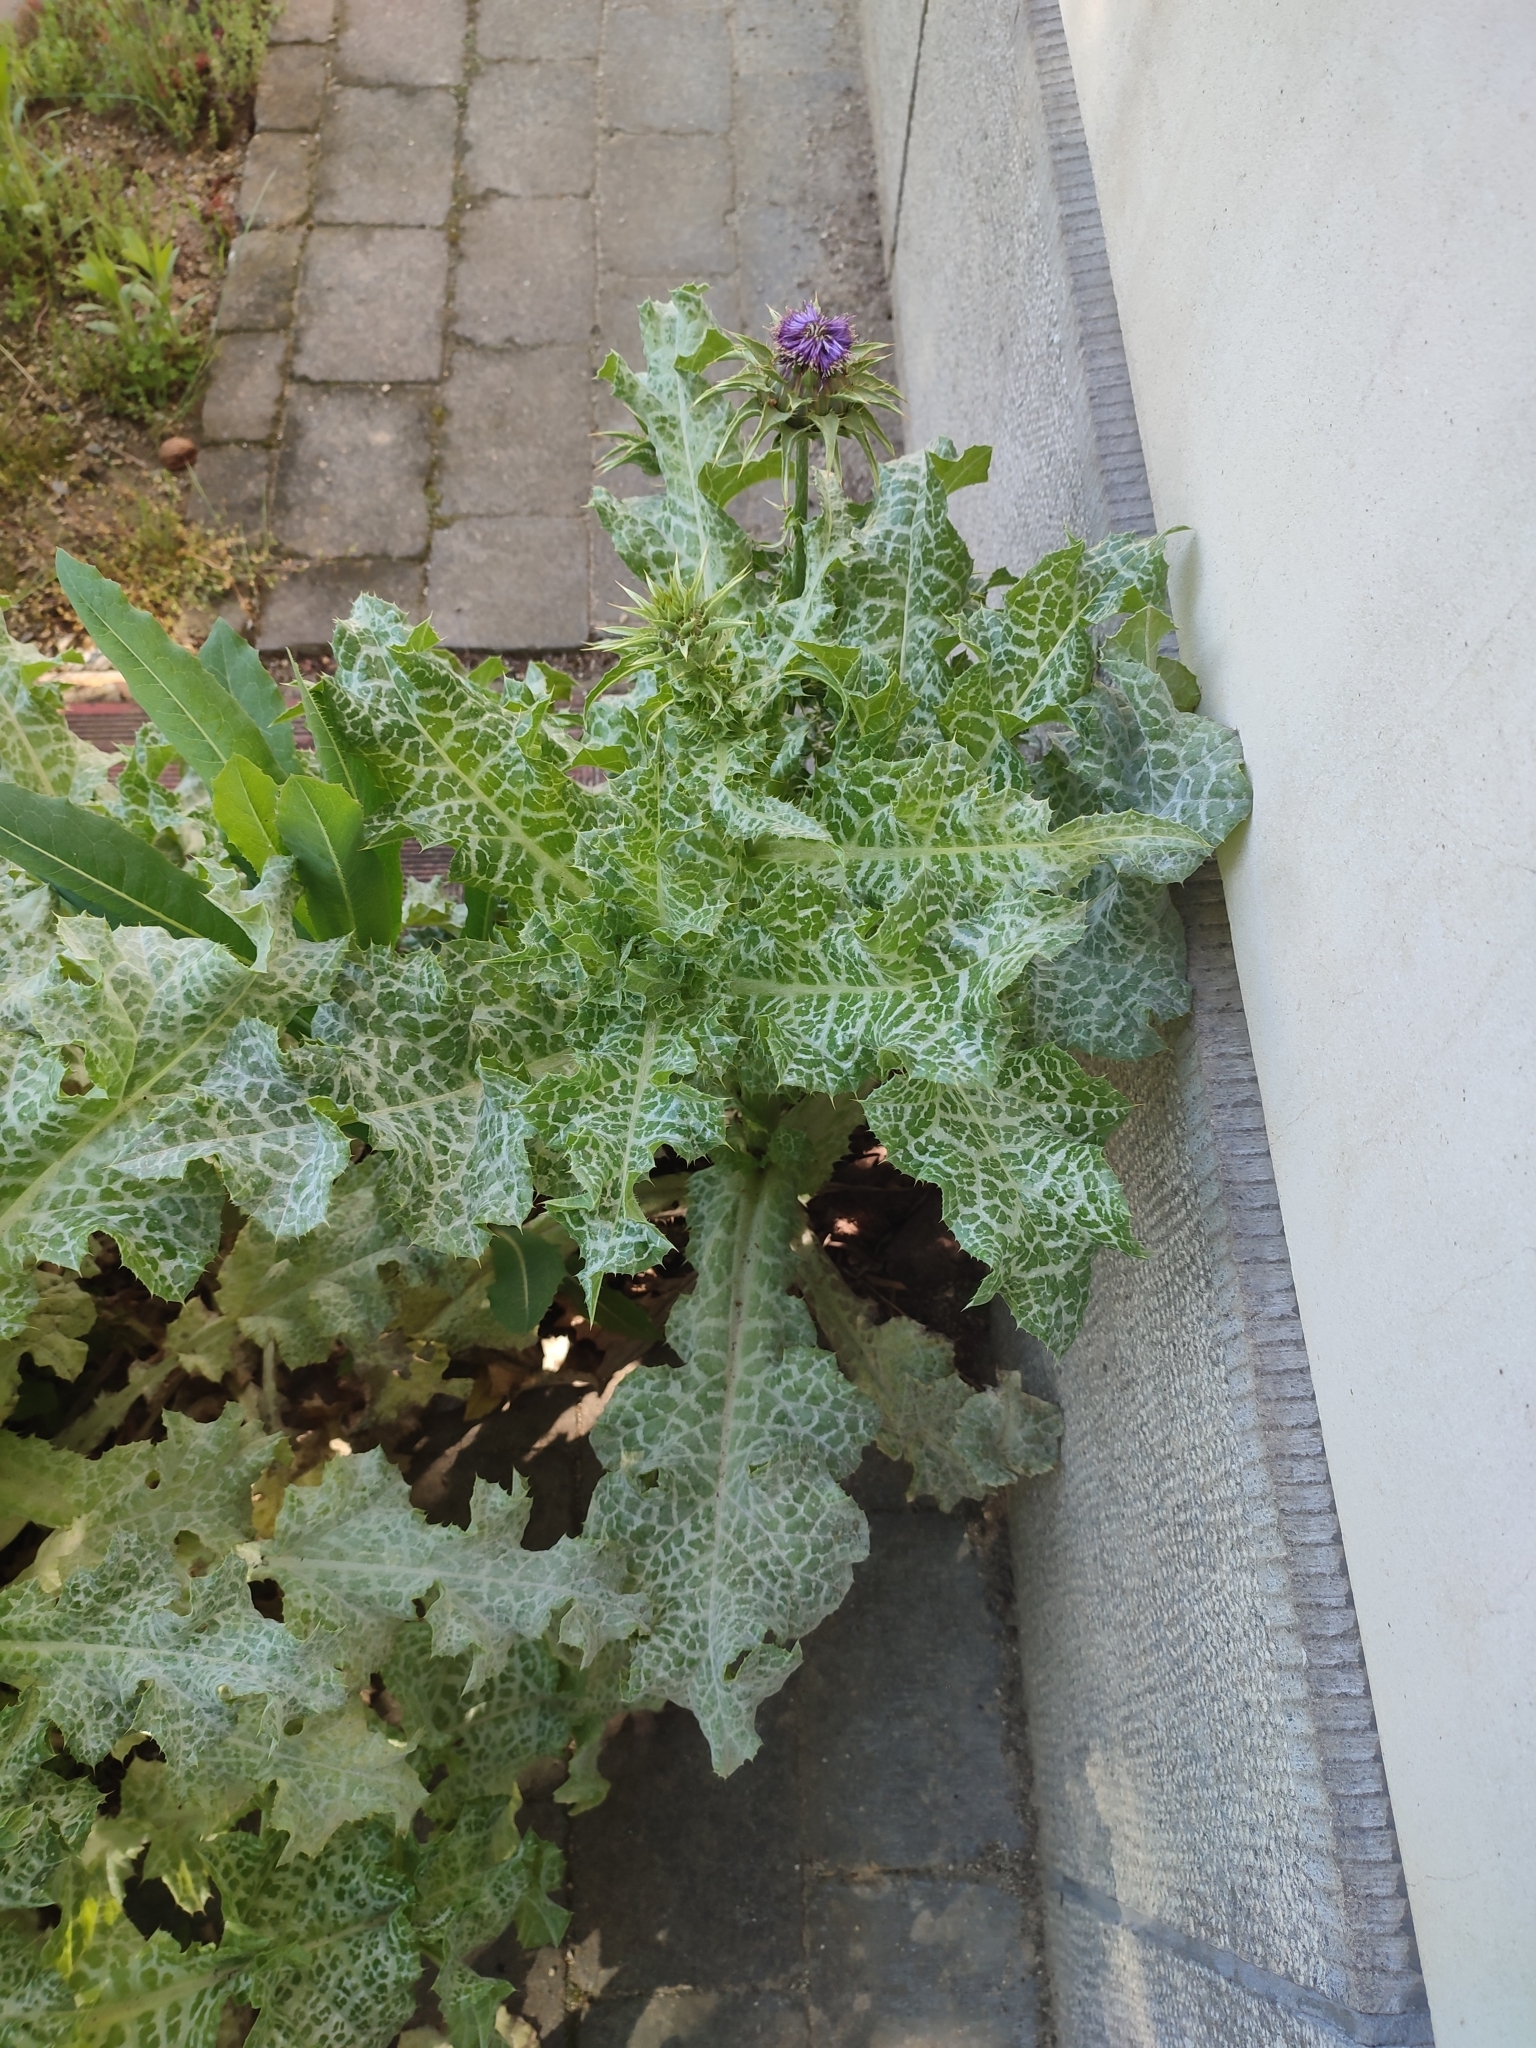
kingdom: Plantae
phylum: Tracheophyta
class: Magnoliopsida
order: Asterales
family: Asteraceae
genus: Silybum
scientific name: Silybum marianum
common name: Milk thistle
